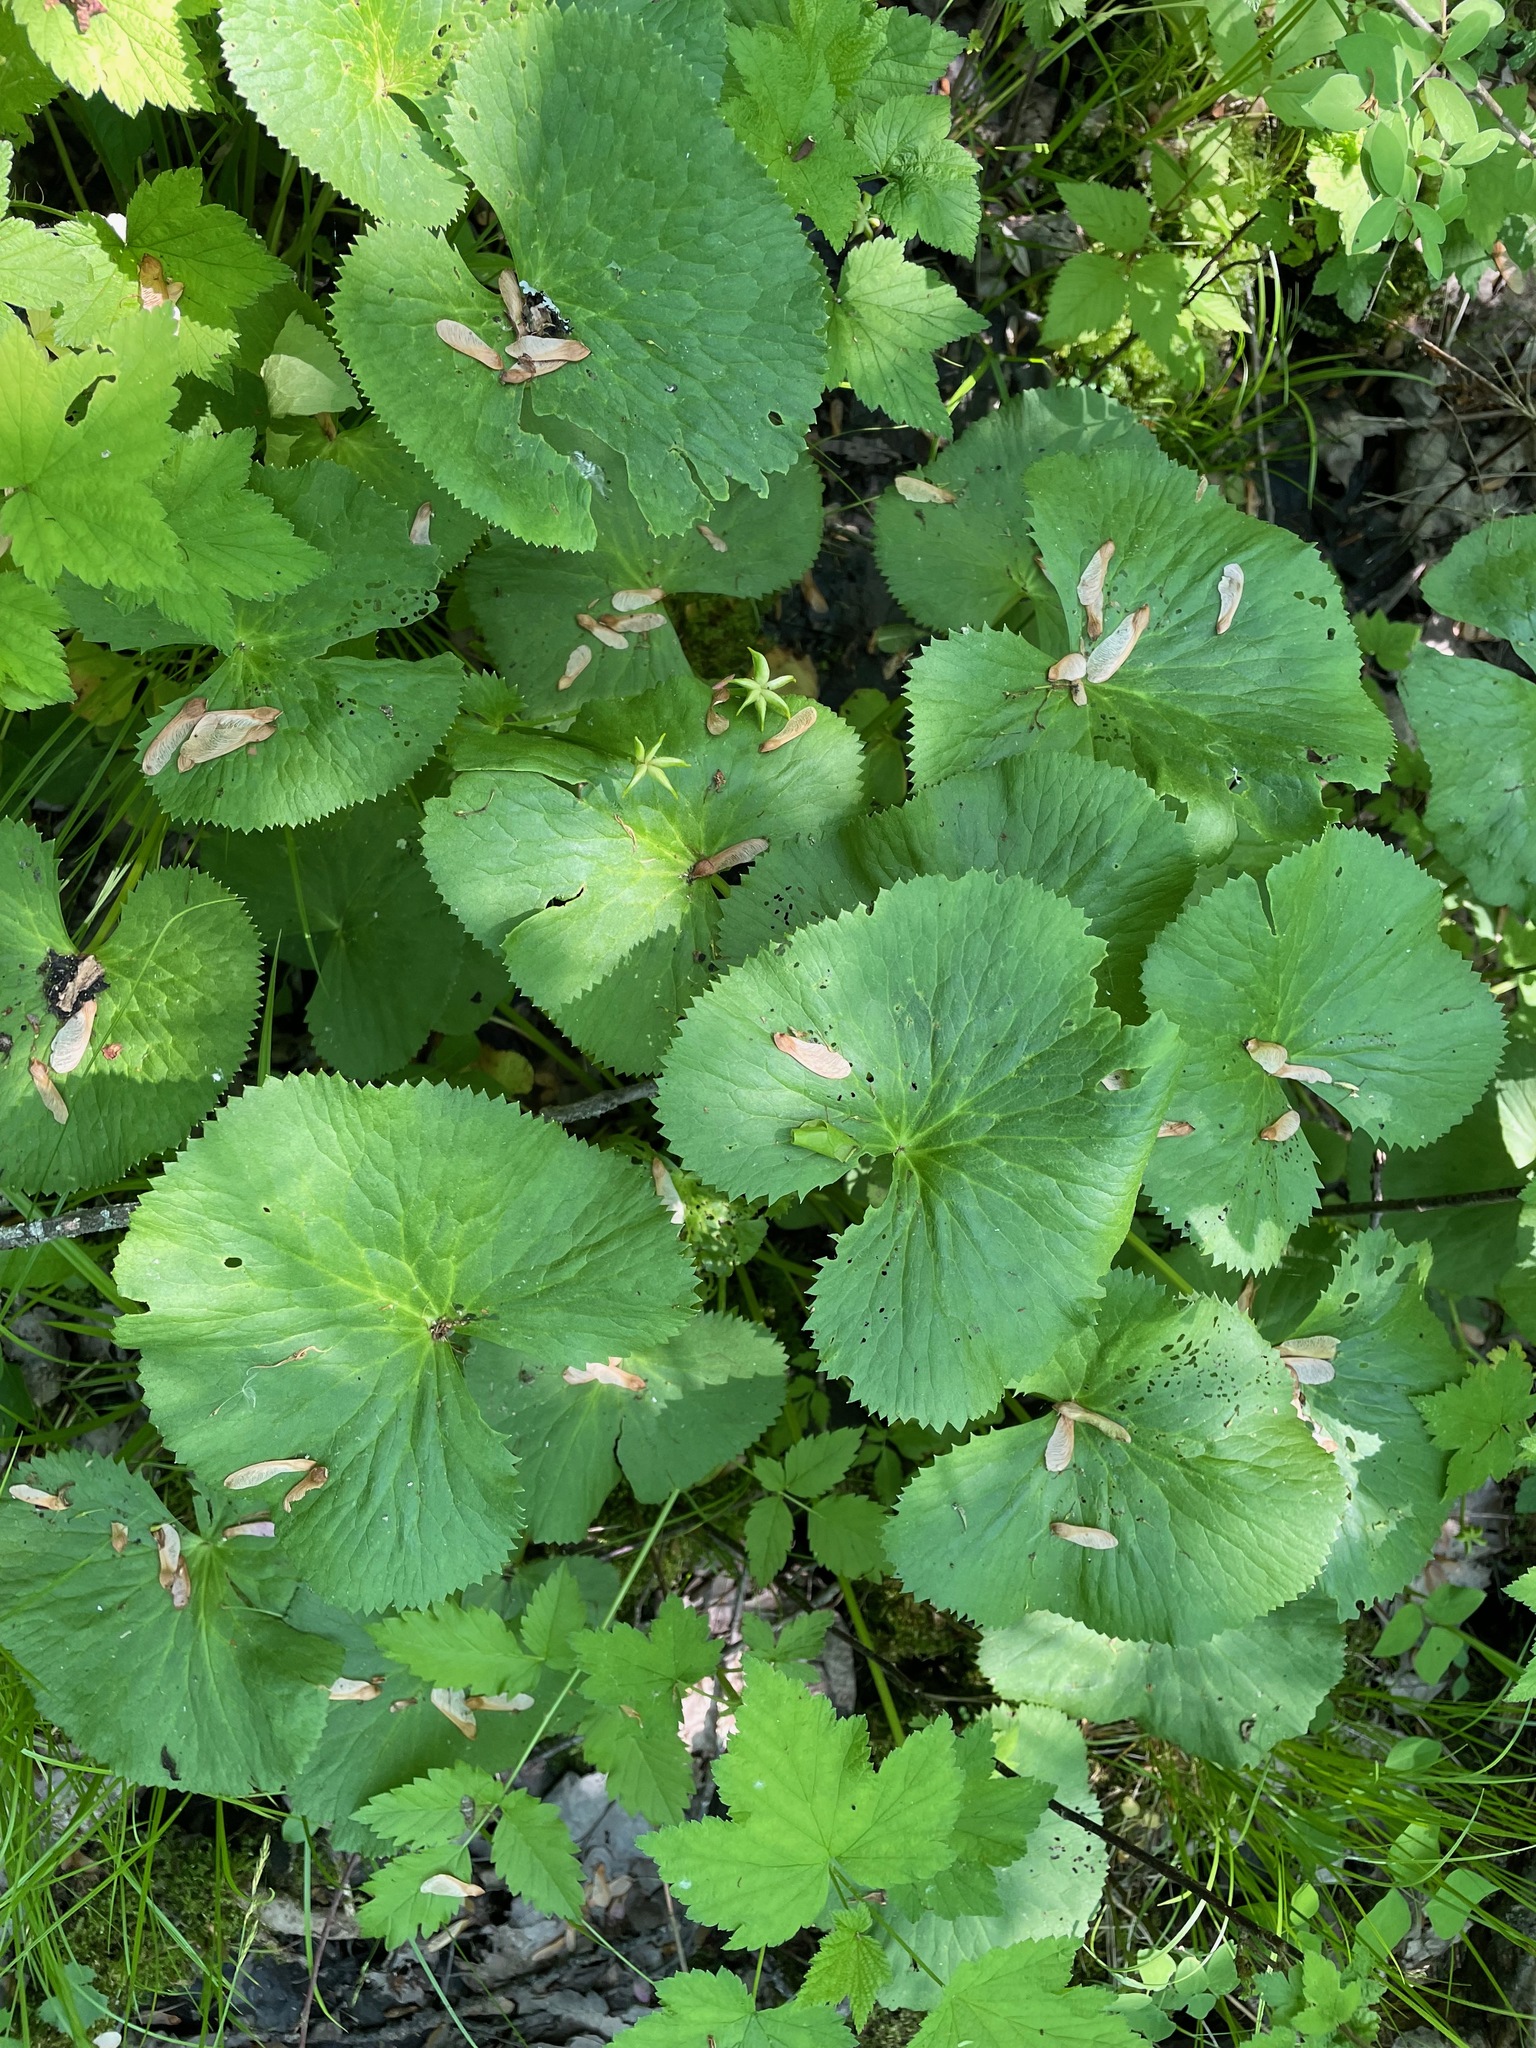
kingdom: Plantae
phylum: Tracheophyta
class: Magnoliopsida
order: Ranunculales
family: Ranunculaceae
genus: Caltha
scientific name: Caltha palustris
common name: Marsh marigold
